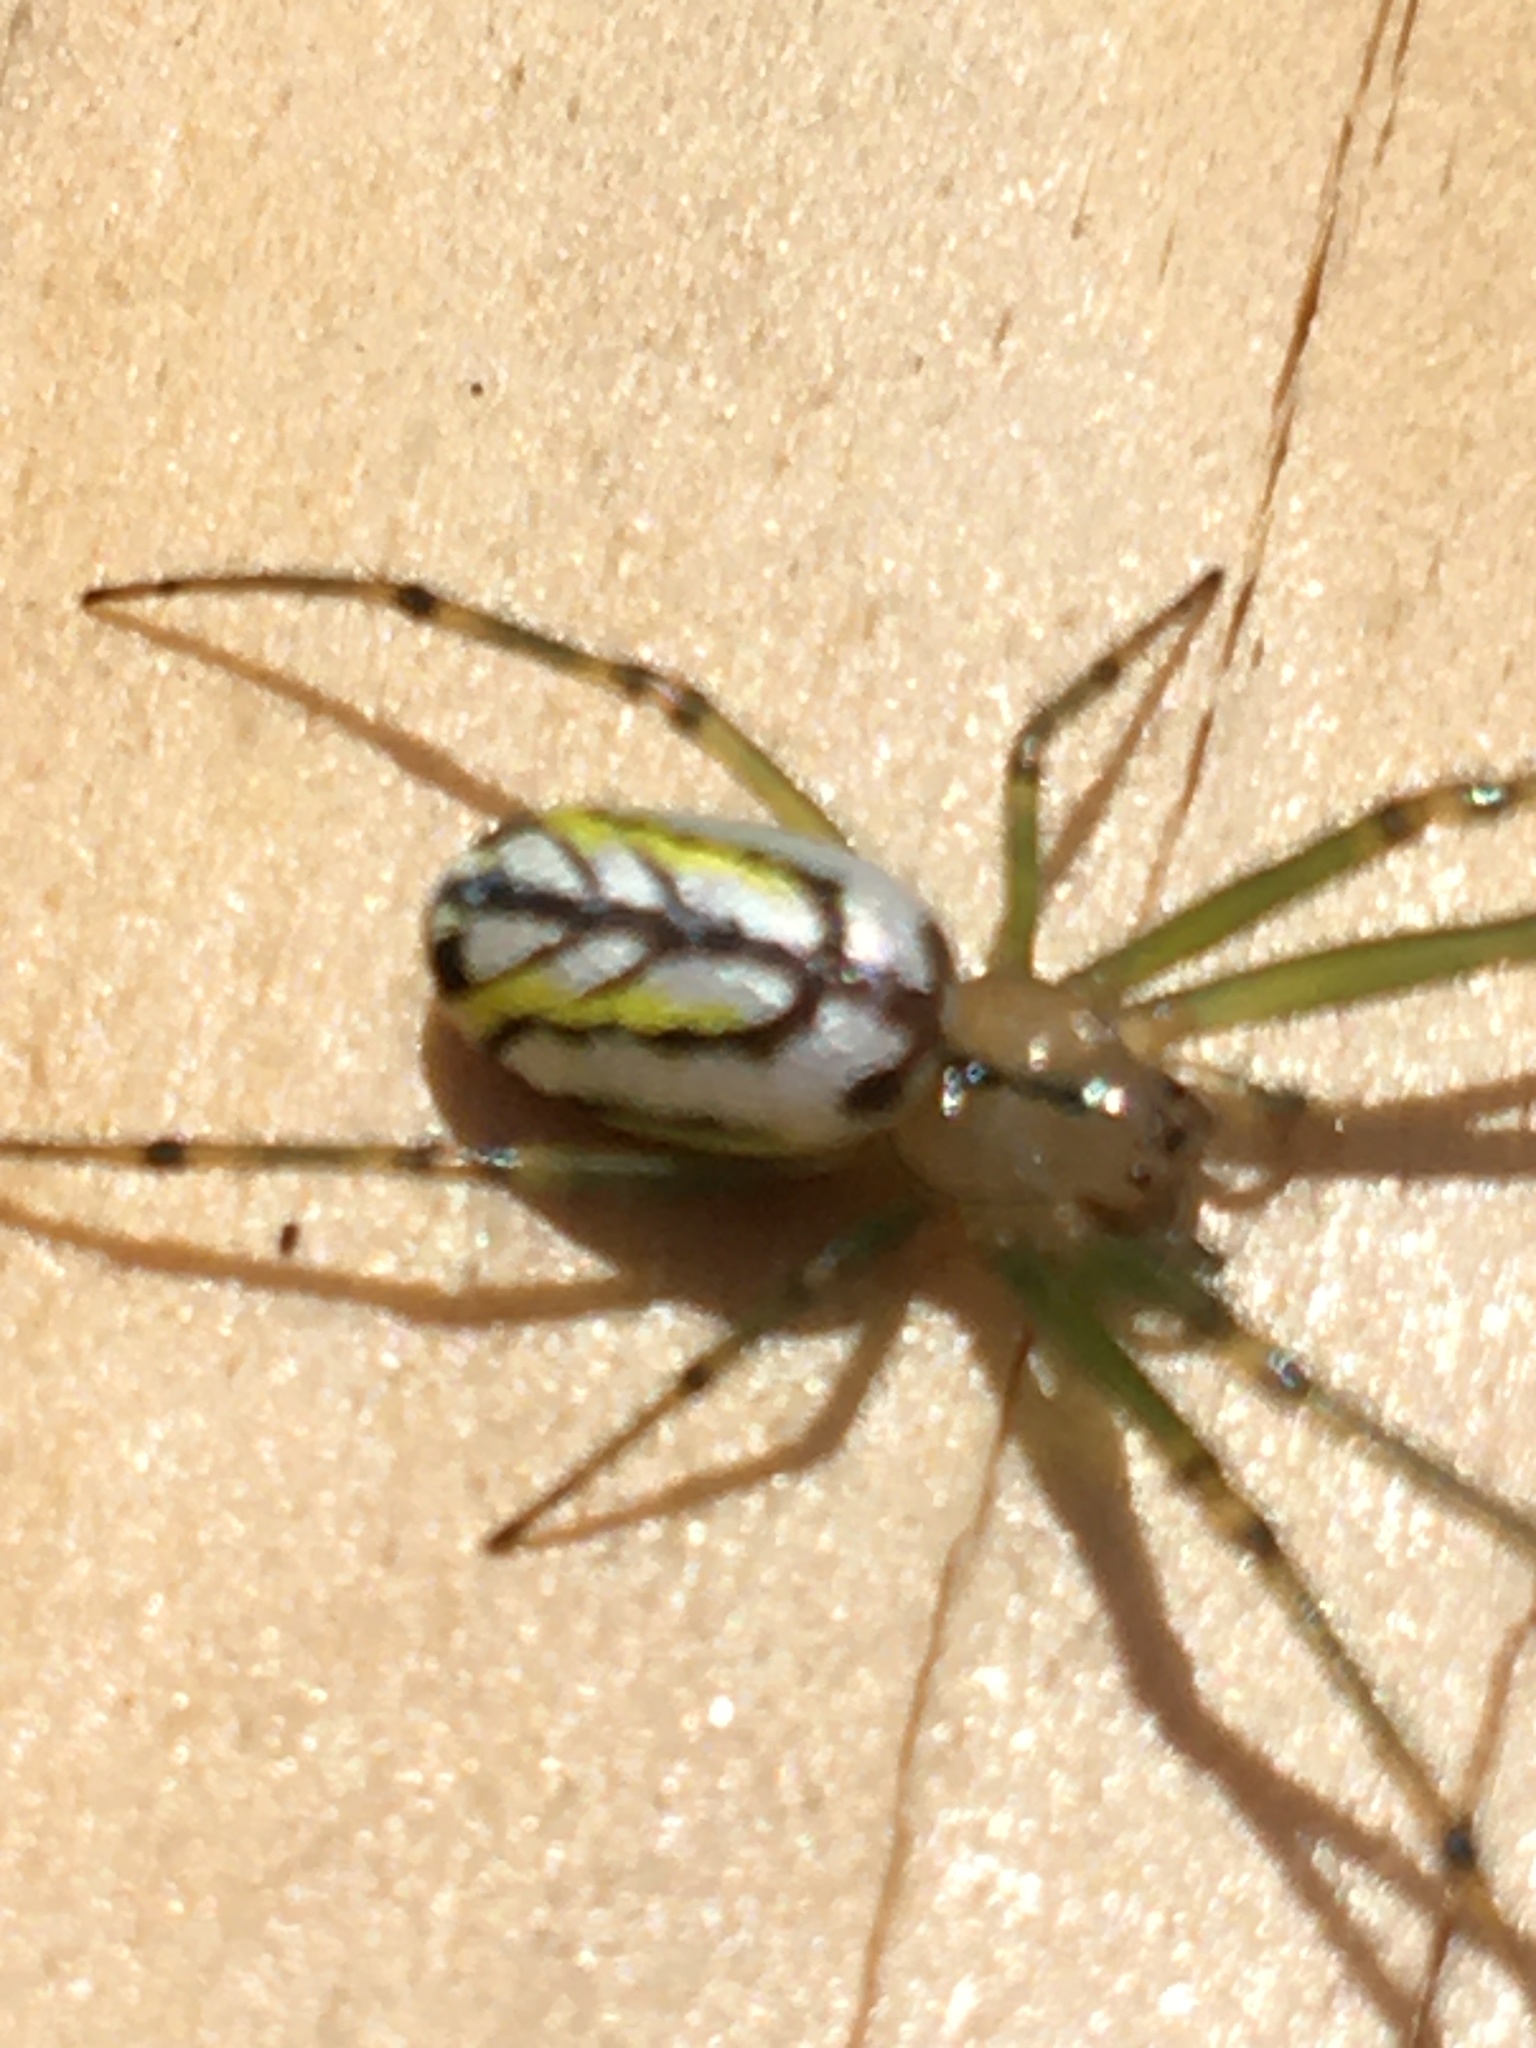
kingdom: Animalia
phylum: Arthropoda
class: Arachnida
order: Araneae
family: Tetragnathidae
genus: Leucauge
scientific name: Leucauge venusta
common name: Longjawed orb weavers
